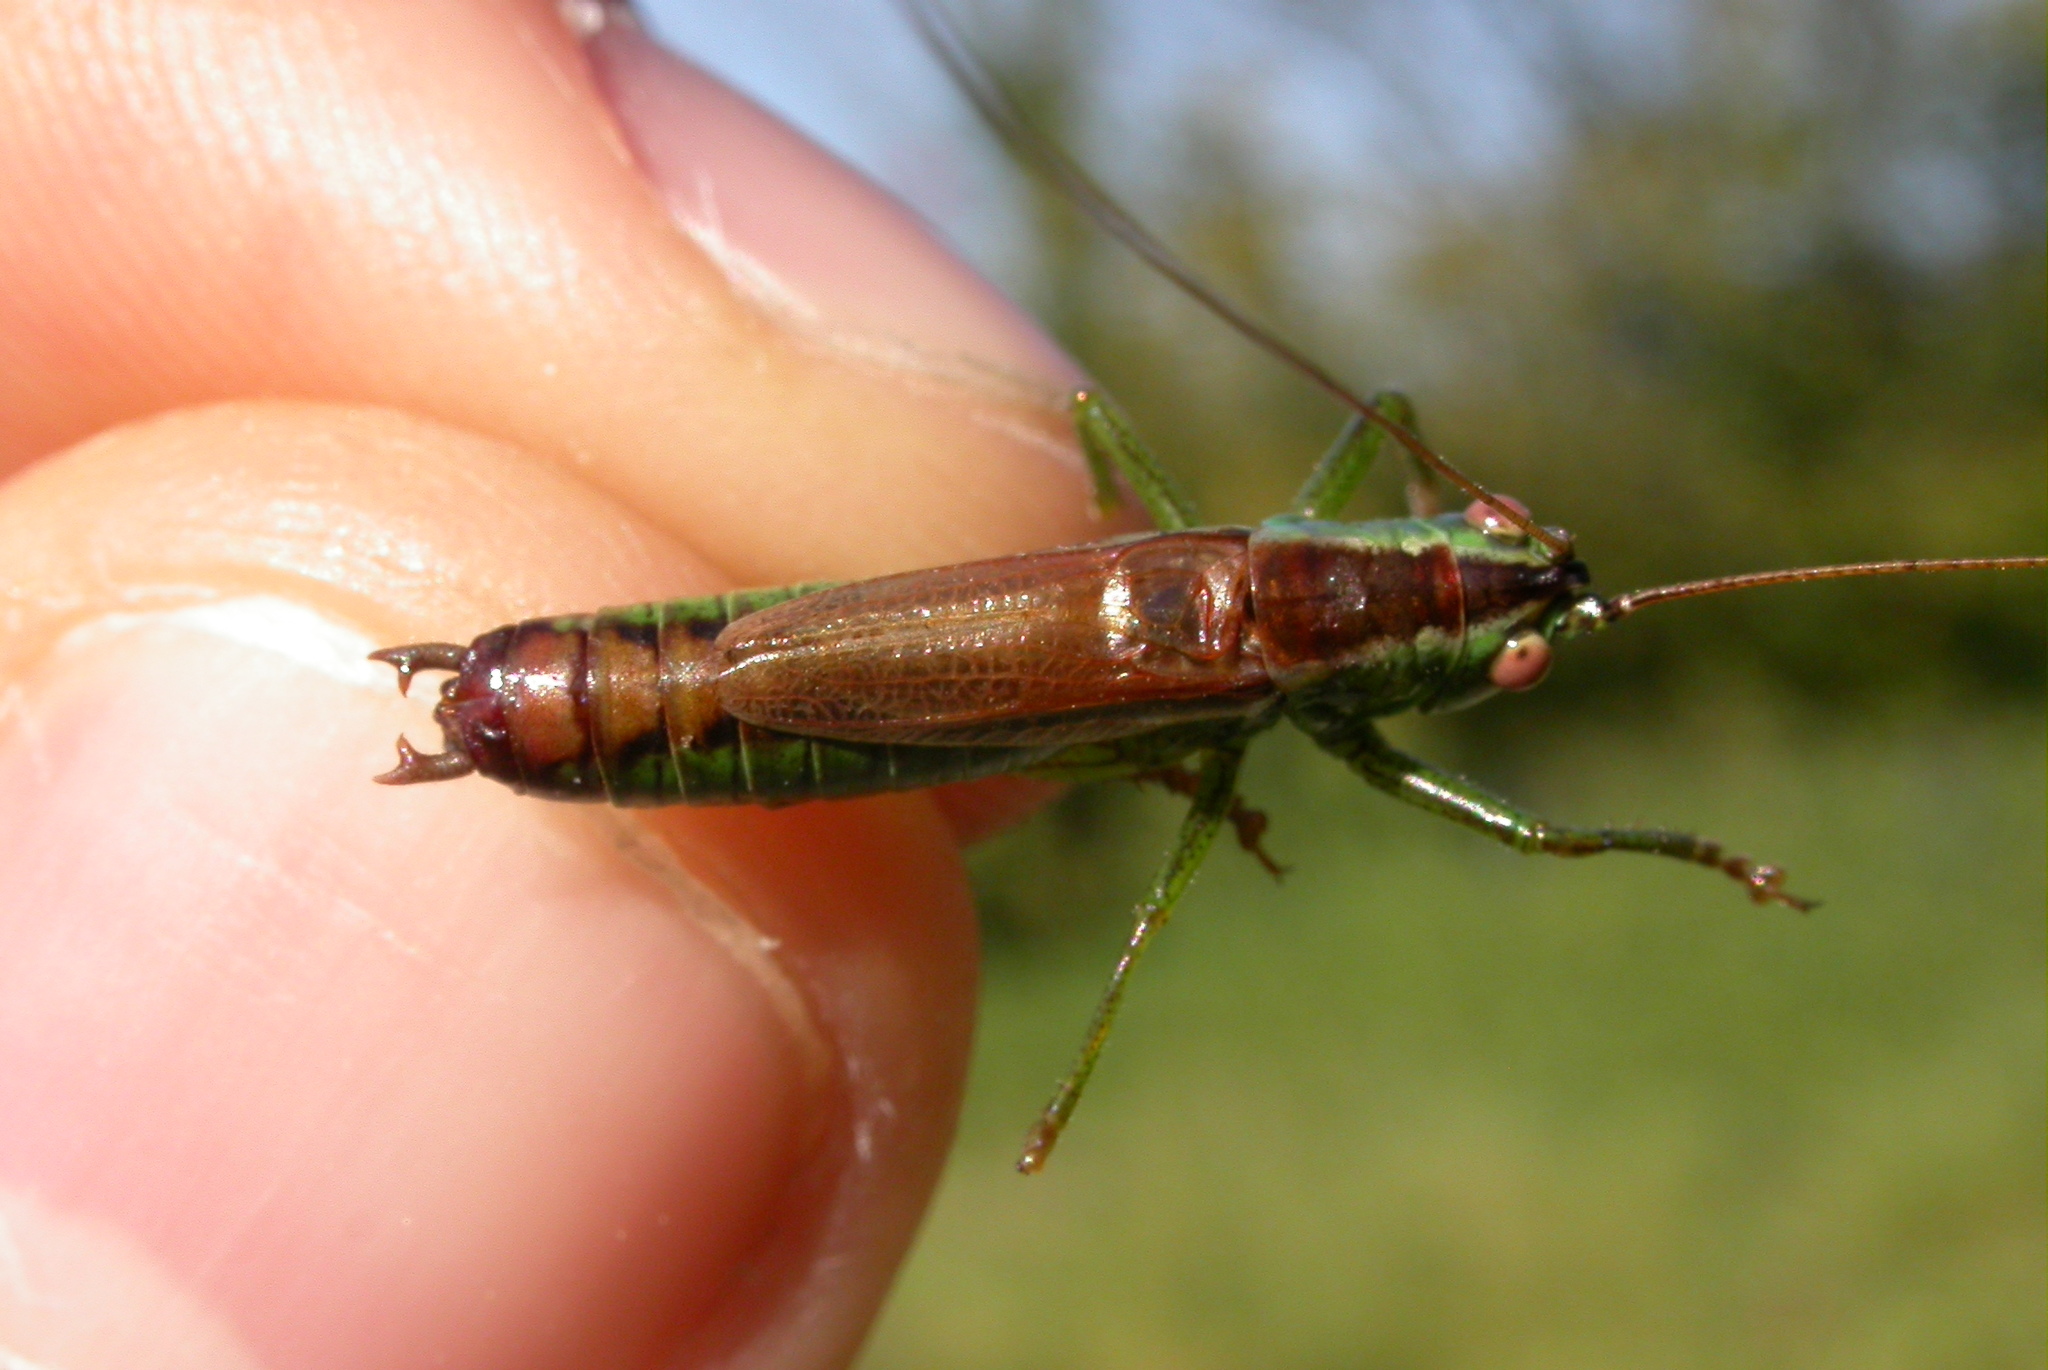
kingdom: Animalia
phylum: Arthropoda
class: Insecta
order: Orthoptera
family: Tettigoniidae
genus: Conocephalus
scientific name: Conocephalus dorsalis
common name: Short-winged conehead
